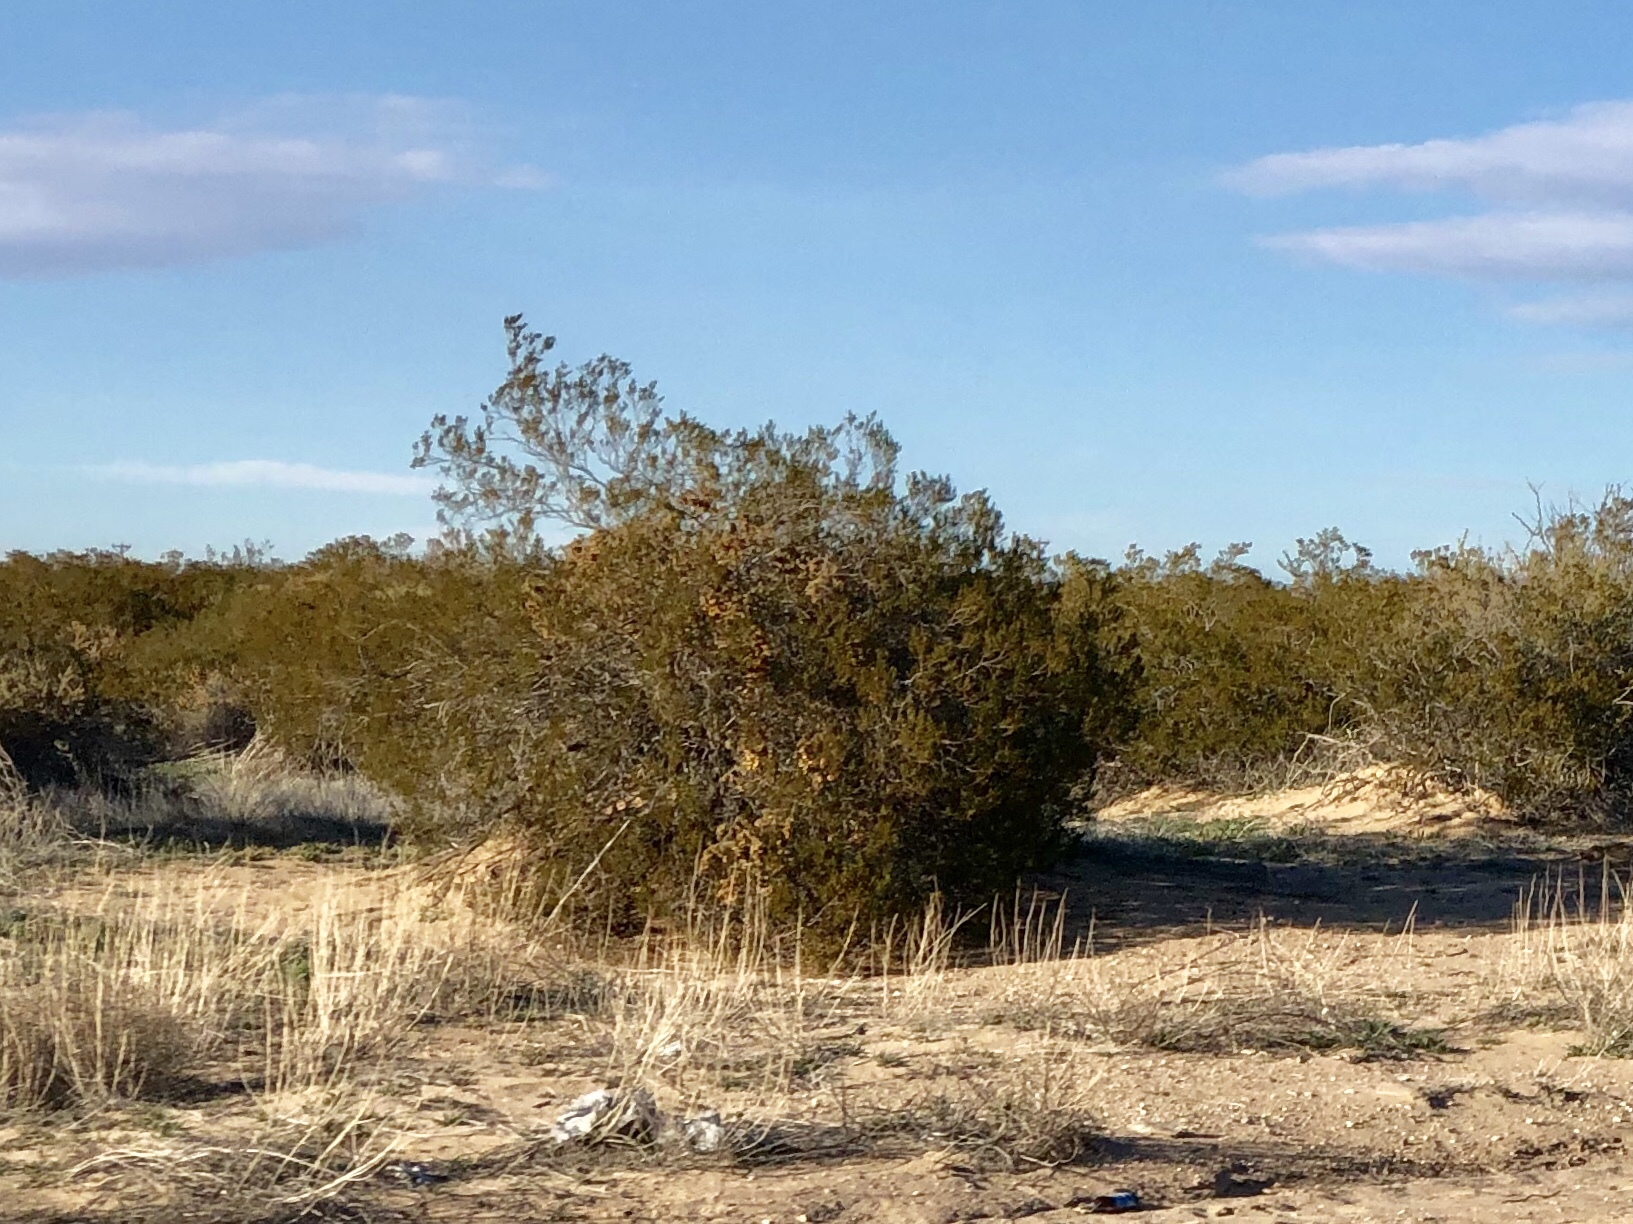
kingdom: Plantae
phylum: Tracheophyta
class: Magnoliopsida
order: Zygophyllales
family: Zygophyllaceae
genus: Larrea
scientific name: Larrea tridentata
